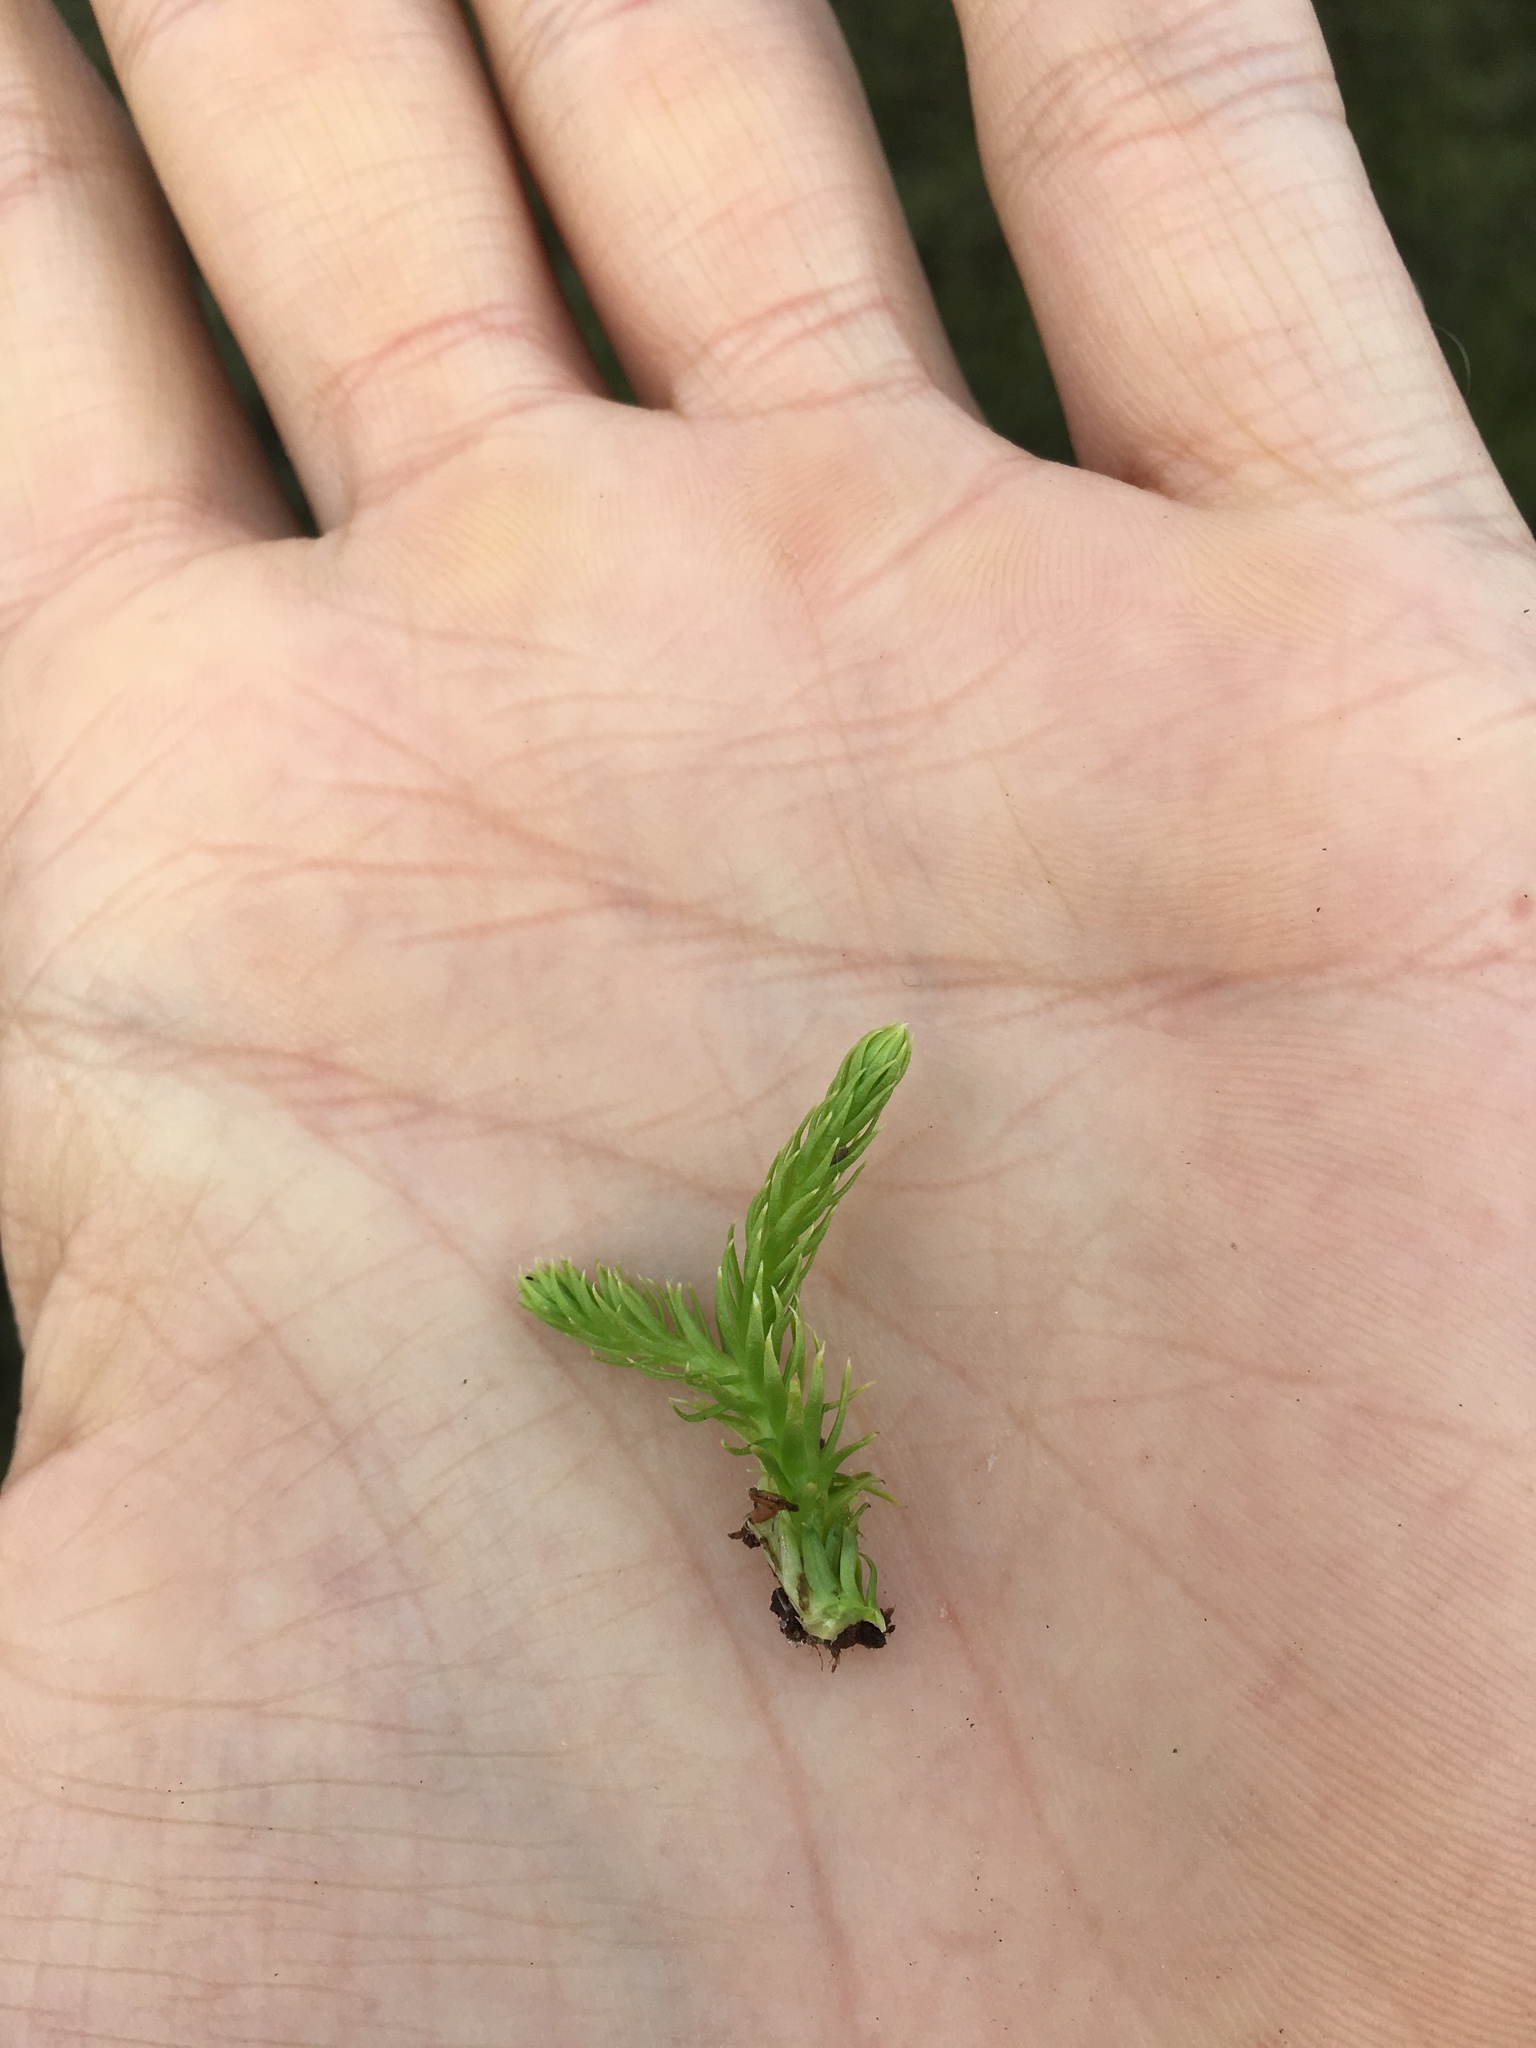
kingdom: Plantae
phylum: Tracheophyta
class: Lycopodiopsida
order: Lycopodiales
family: Lycopodiaceae
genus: Lycopodiella
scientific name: Lycopodiella inundata
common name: Marsh clubmoss
